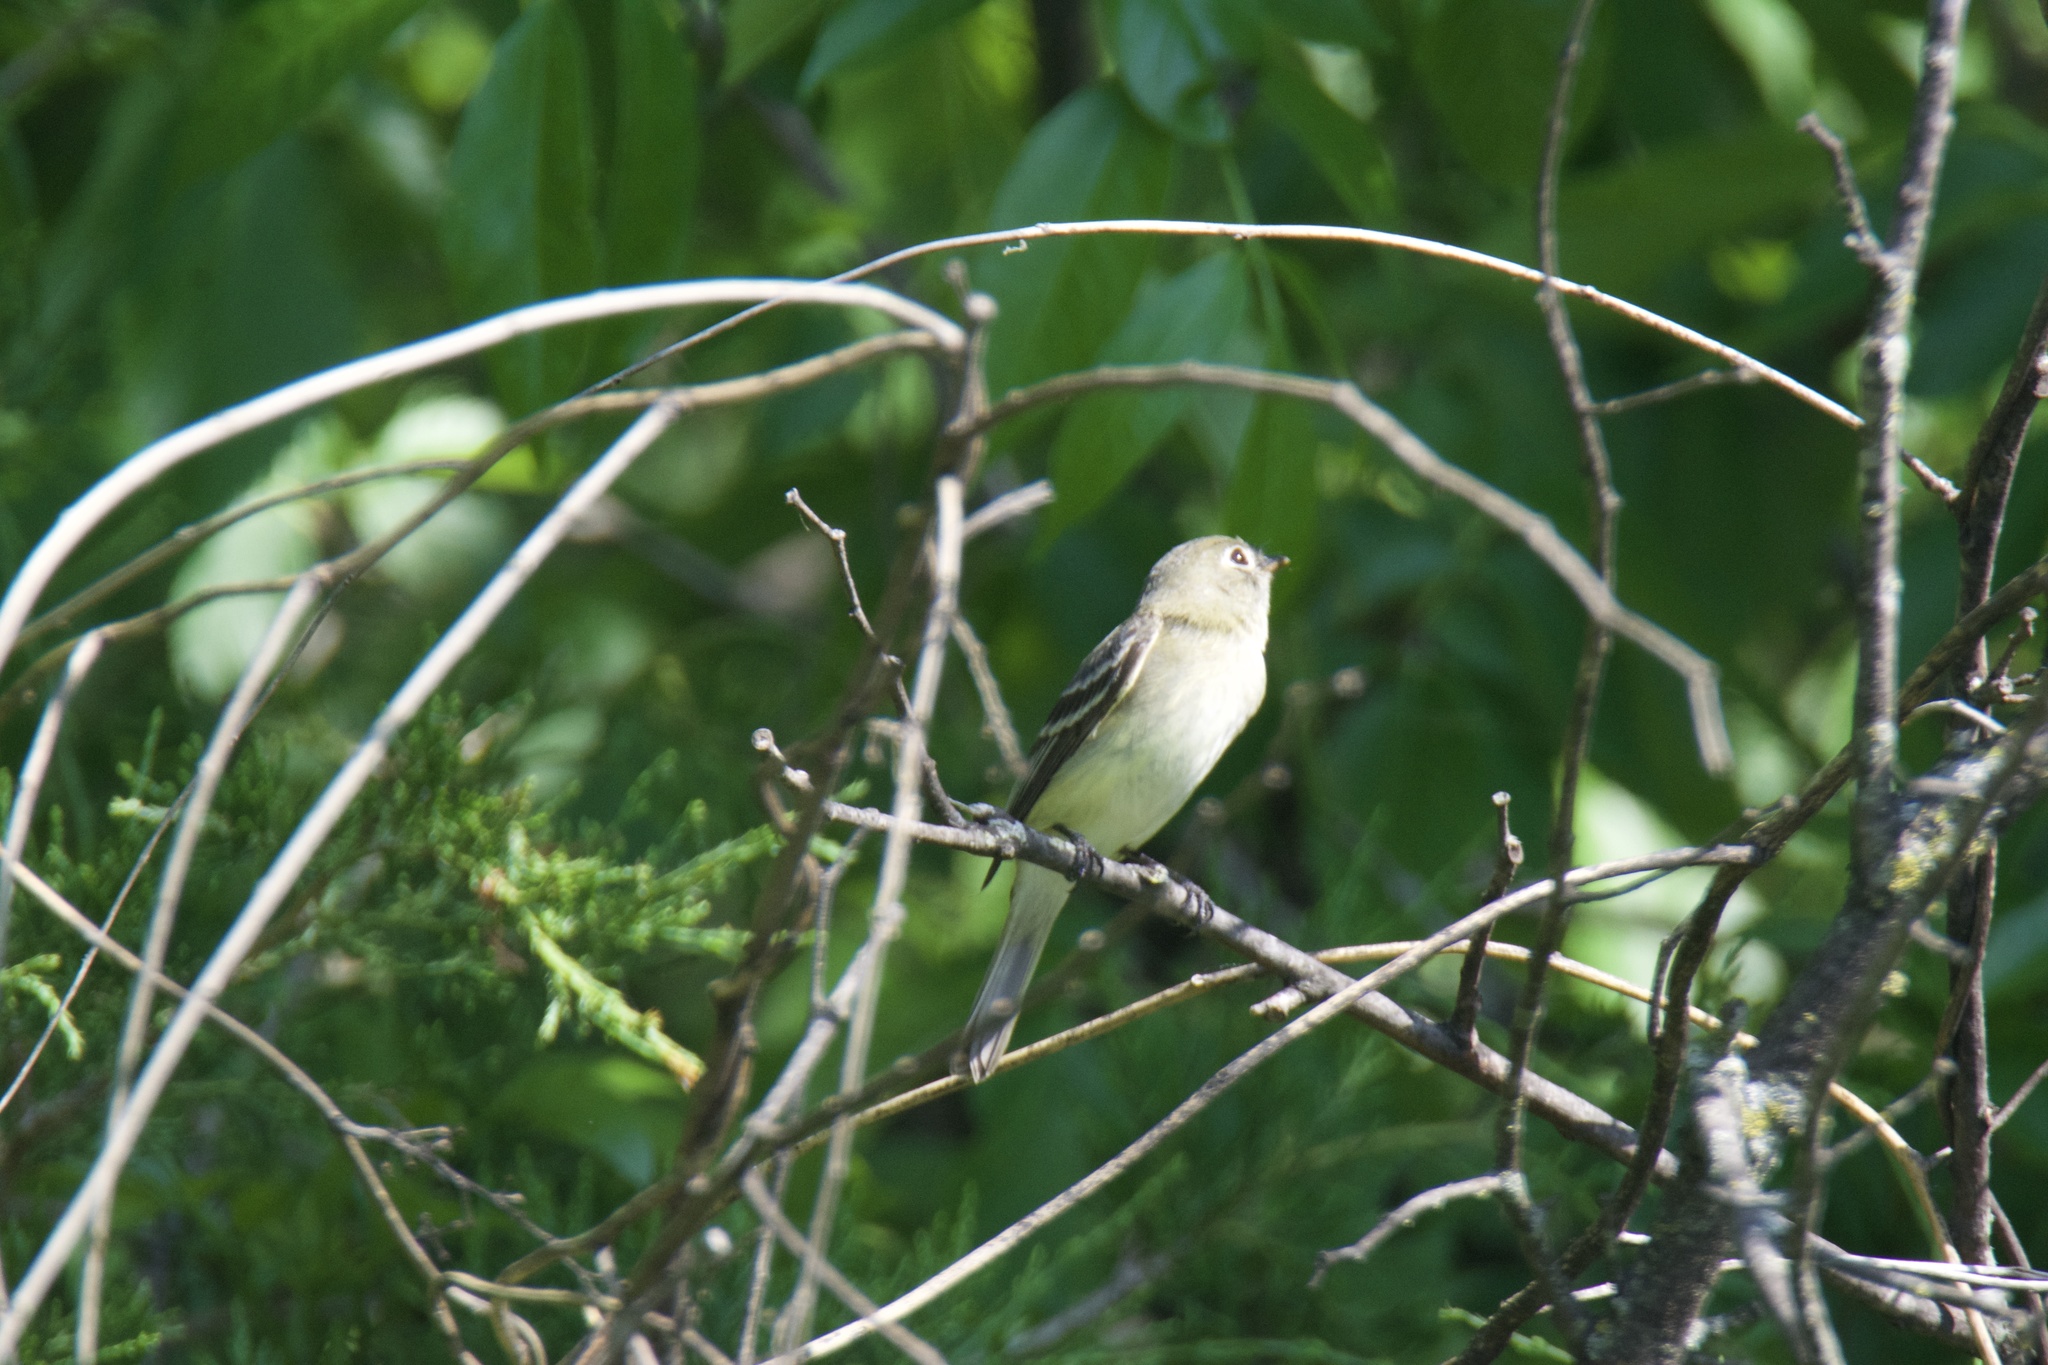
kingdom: Animalia
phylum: Chordata
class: Aves
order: Passeriformes
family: Tyrannidae
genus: Empidonax
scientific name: Empidonax minimus
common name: Least flycatcher
